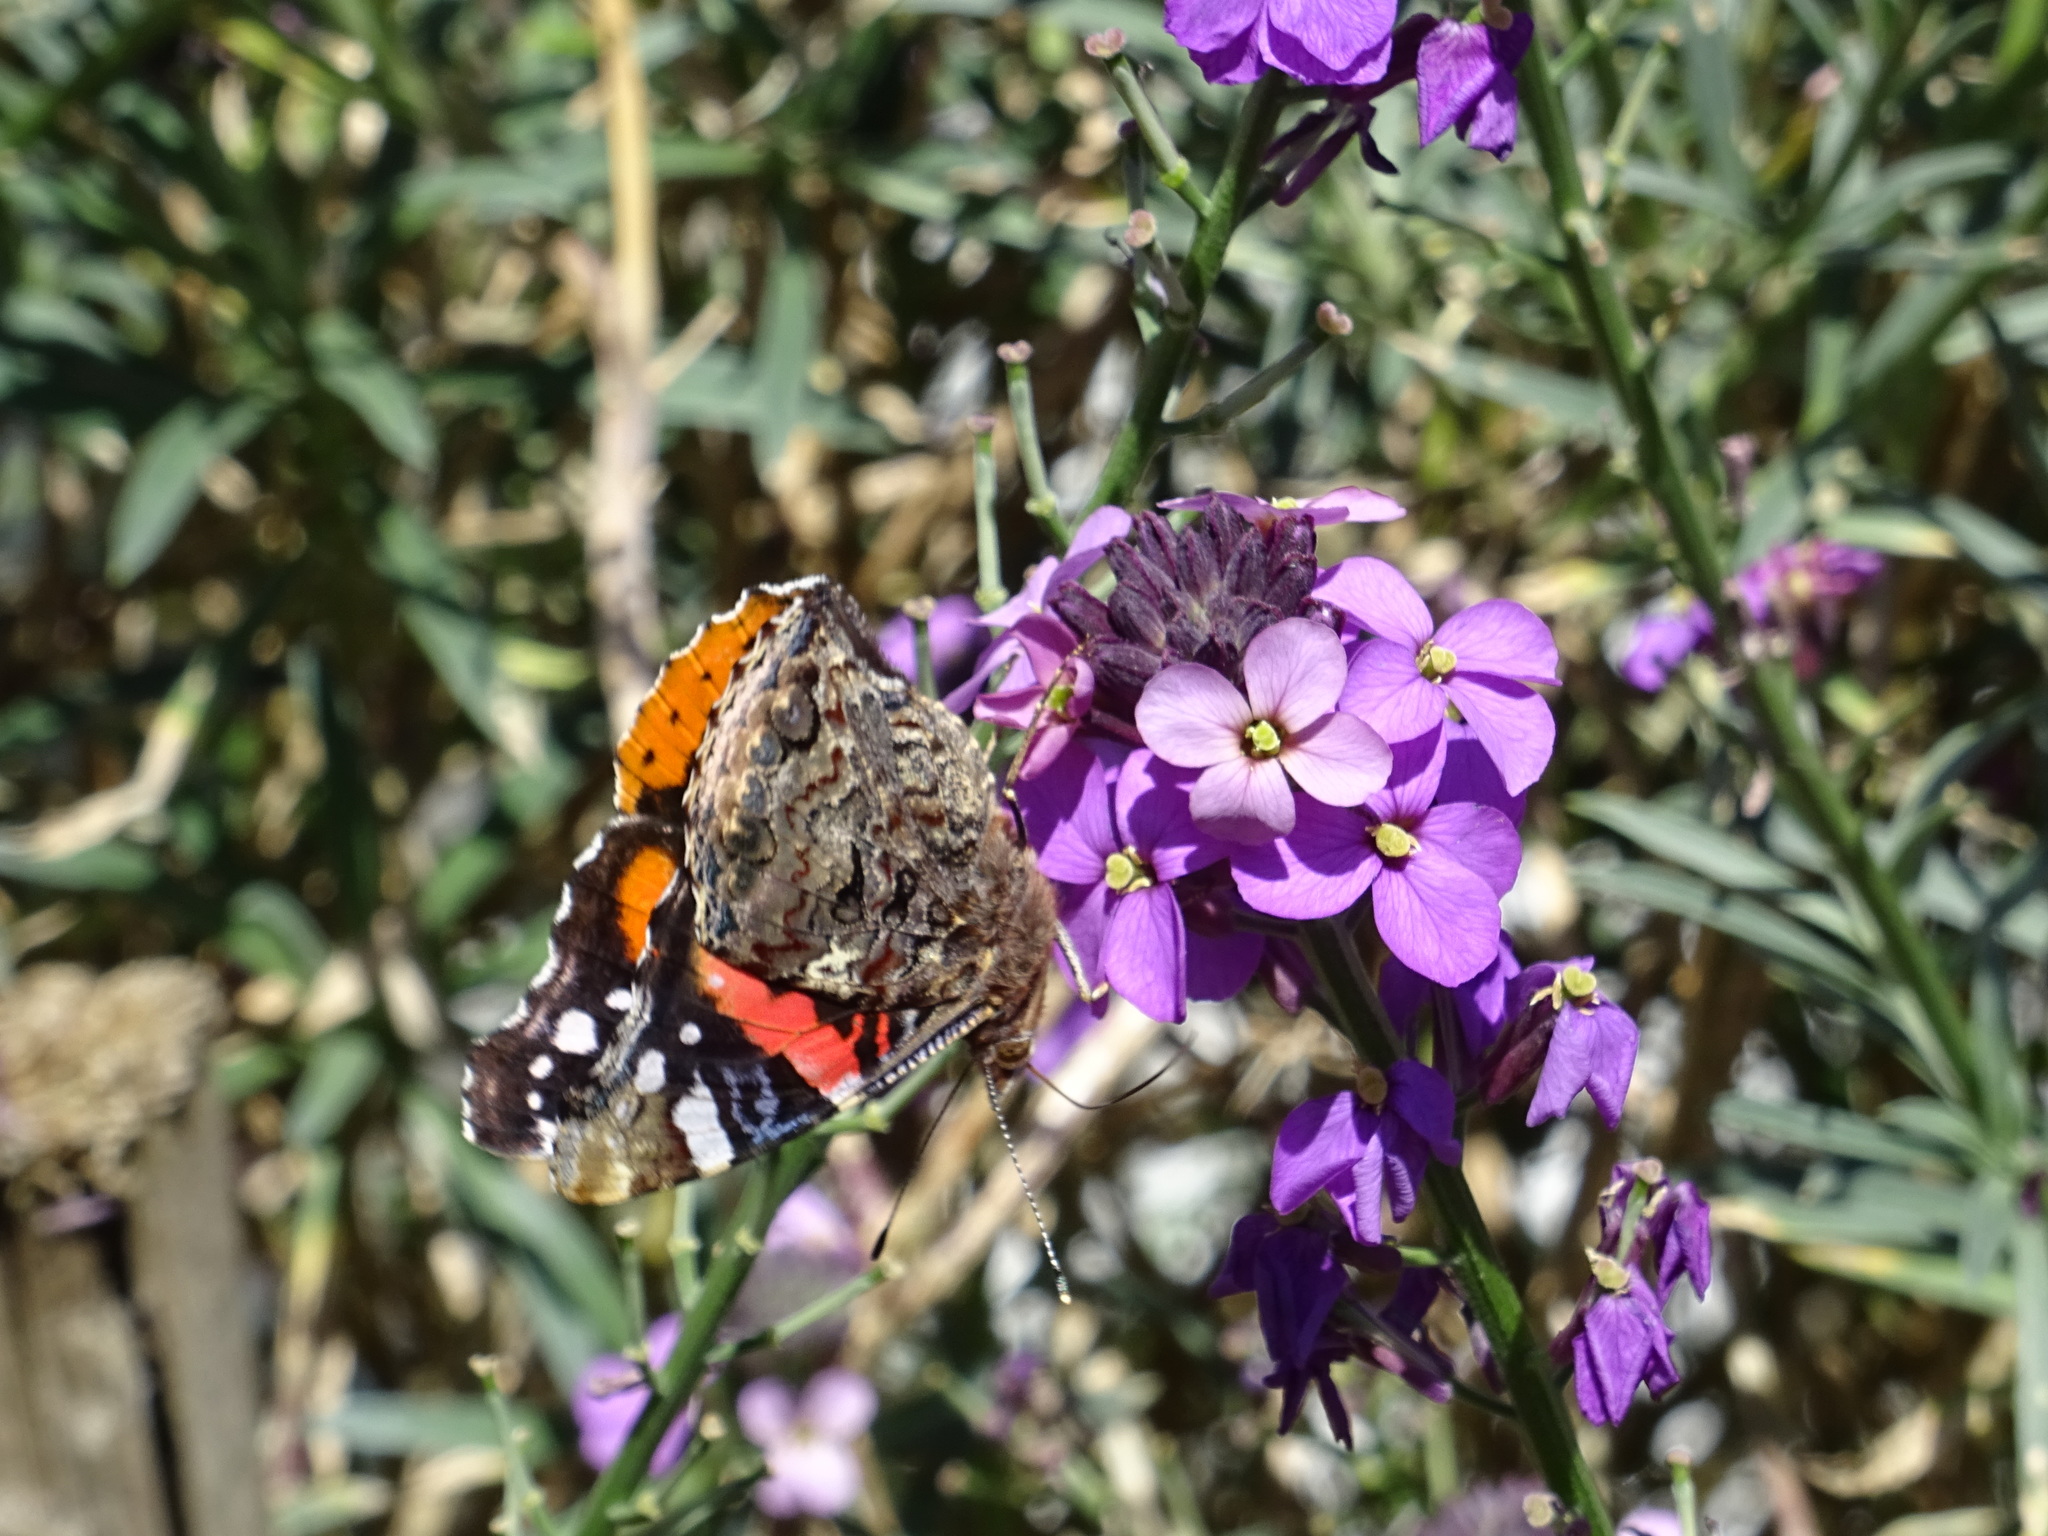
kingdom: Animalia
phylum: Arthropoda
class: Insecta
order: Lepidoptera
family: Nymphalidae
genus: Vanessa
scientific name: Vanessa atalanta
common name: Red admiral
